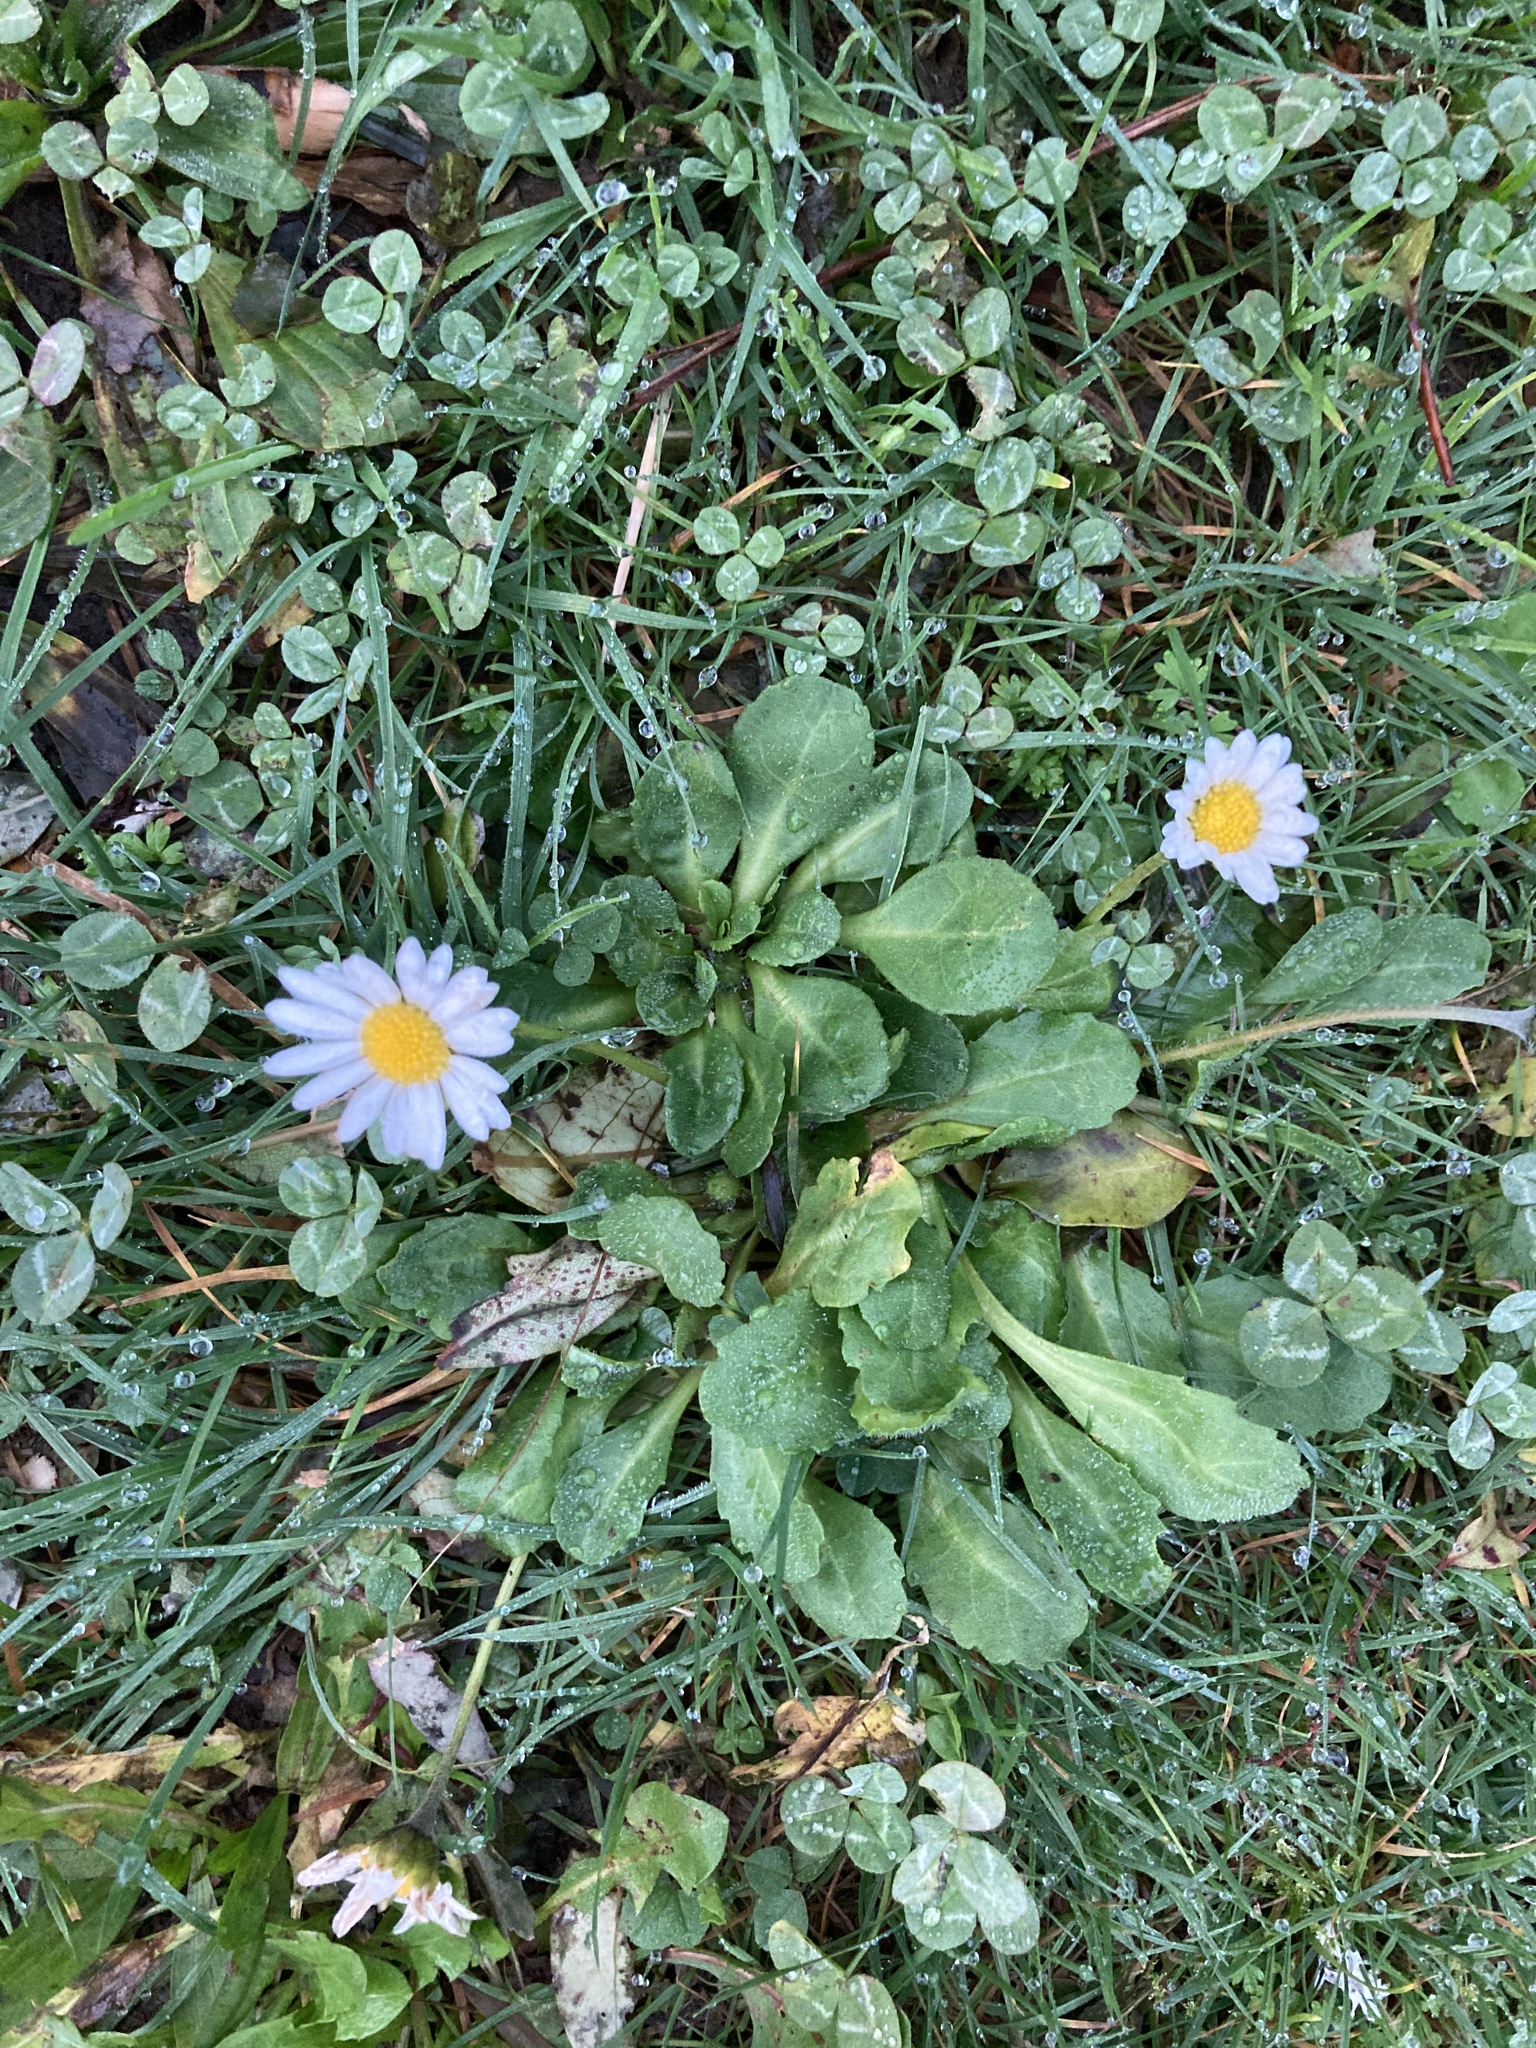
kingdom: Plantae
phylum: Tracheophyta
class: Magnoliopsida
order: Asterales
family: Asteraceae
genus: Bellis
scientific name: Bellis perennis
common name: Lawndaisy
